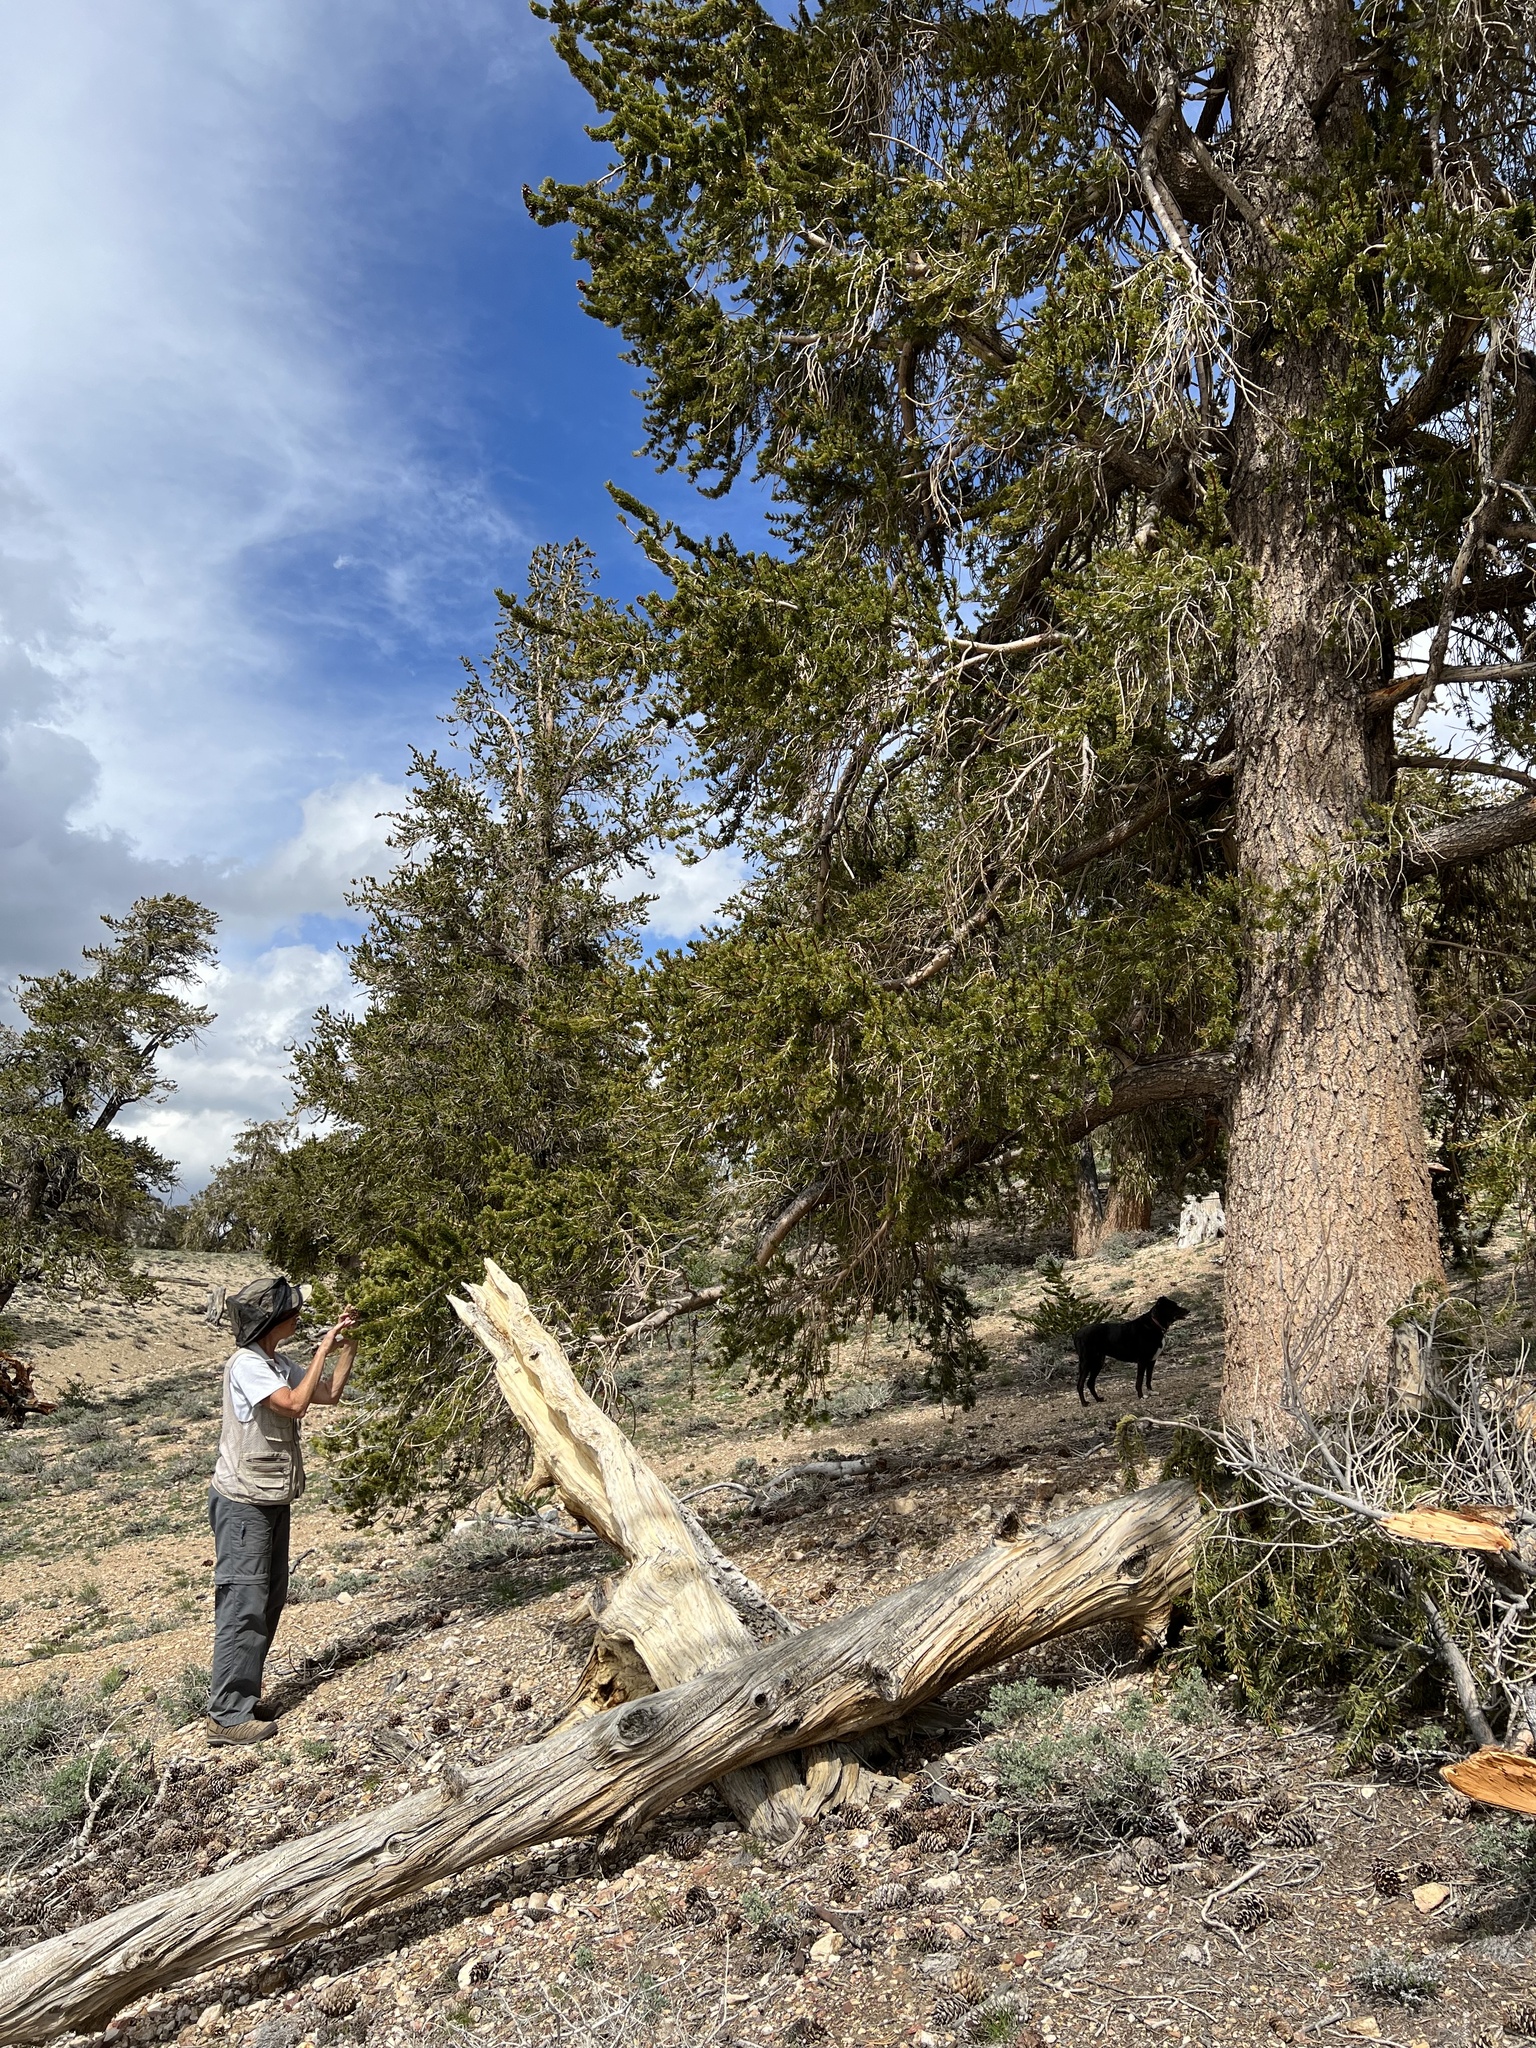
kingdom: Plantae
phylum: Tracheophyta
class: Pinopsida
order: Pinales
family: Pinaceae
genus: Pinus
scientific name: Pinus longaeva
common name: Intermountain bristlecone pine
